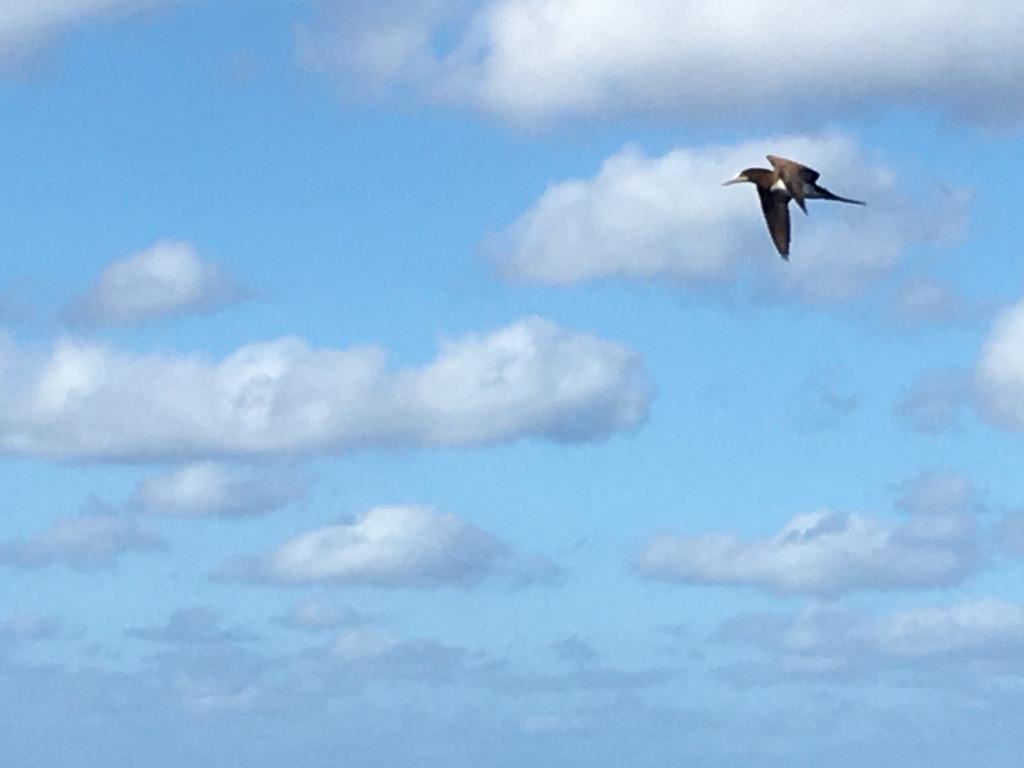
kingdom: Animalia
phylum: Chordata
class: Aves
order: Suliformes
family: Sulidae
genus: Sula
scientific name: Sula leucogaster
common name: Brown booby
